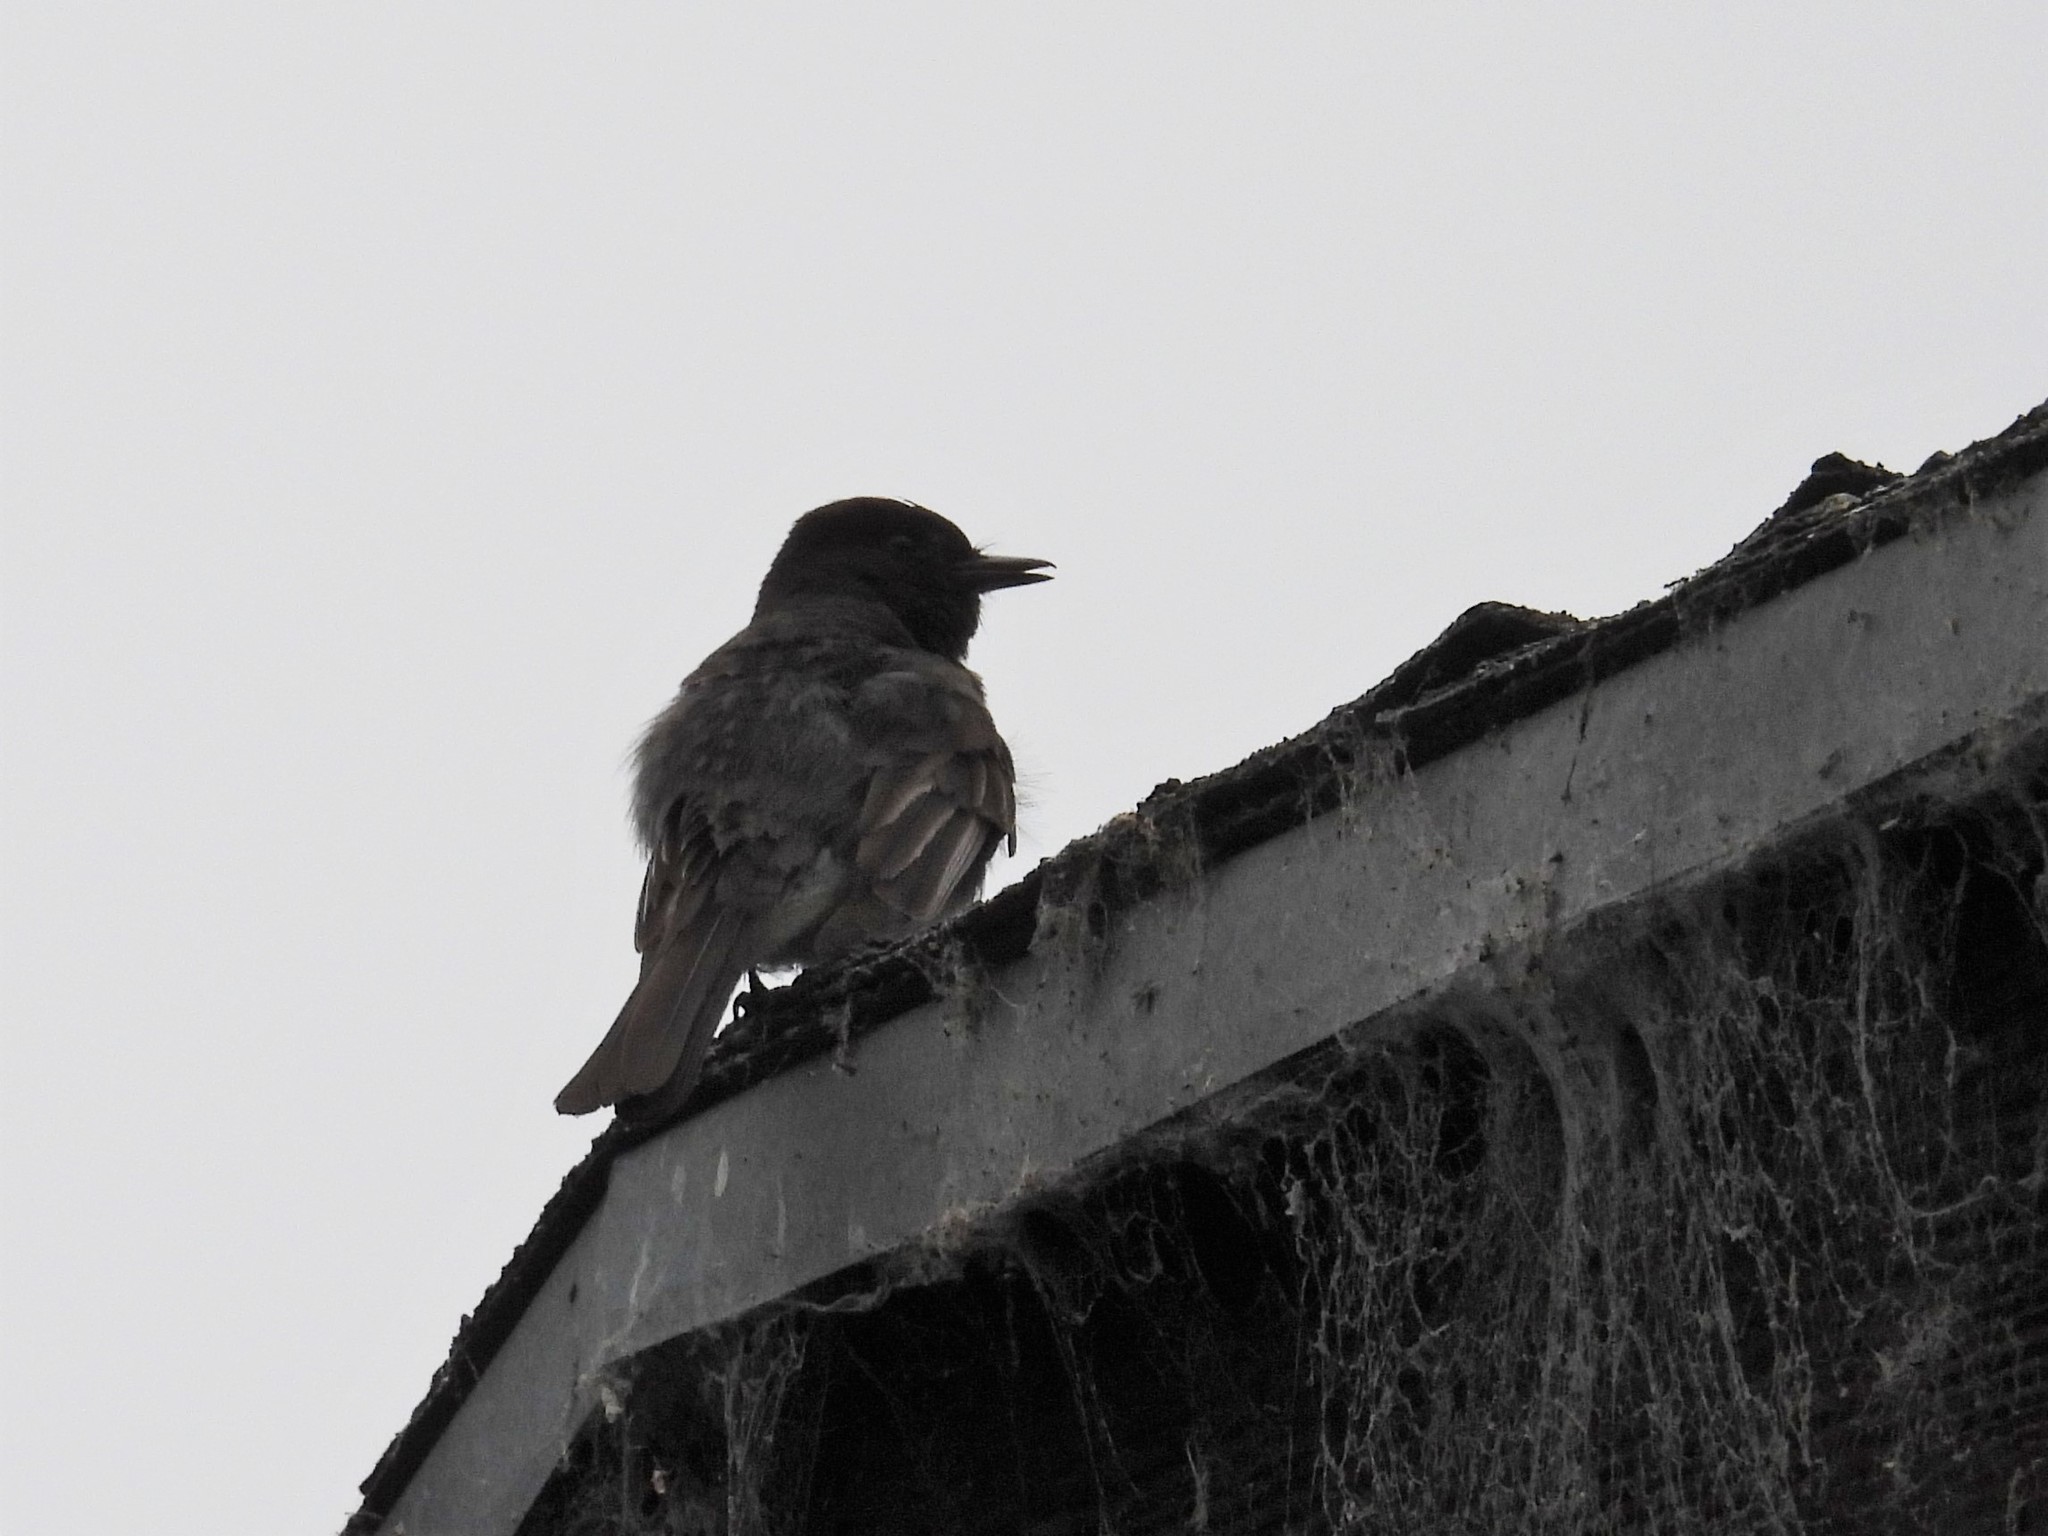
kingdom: Animalia
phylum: Chordata
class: Aves
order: Passeriformes
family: Tyrannidae
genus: Sayornis
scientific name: Sayornis nigricans
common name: Black phoebe
